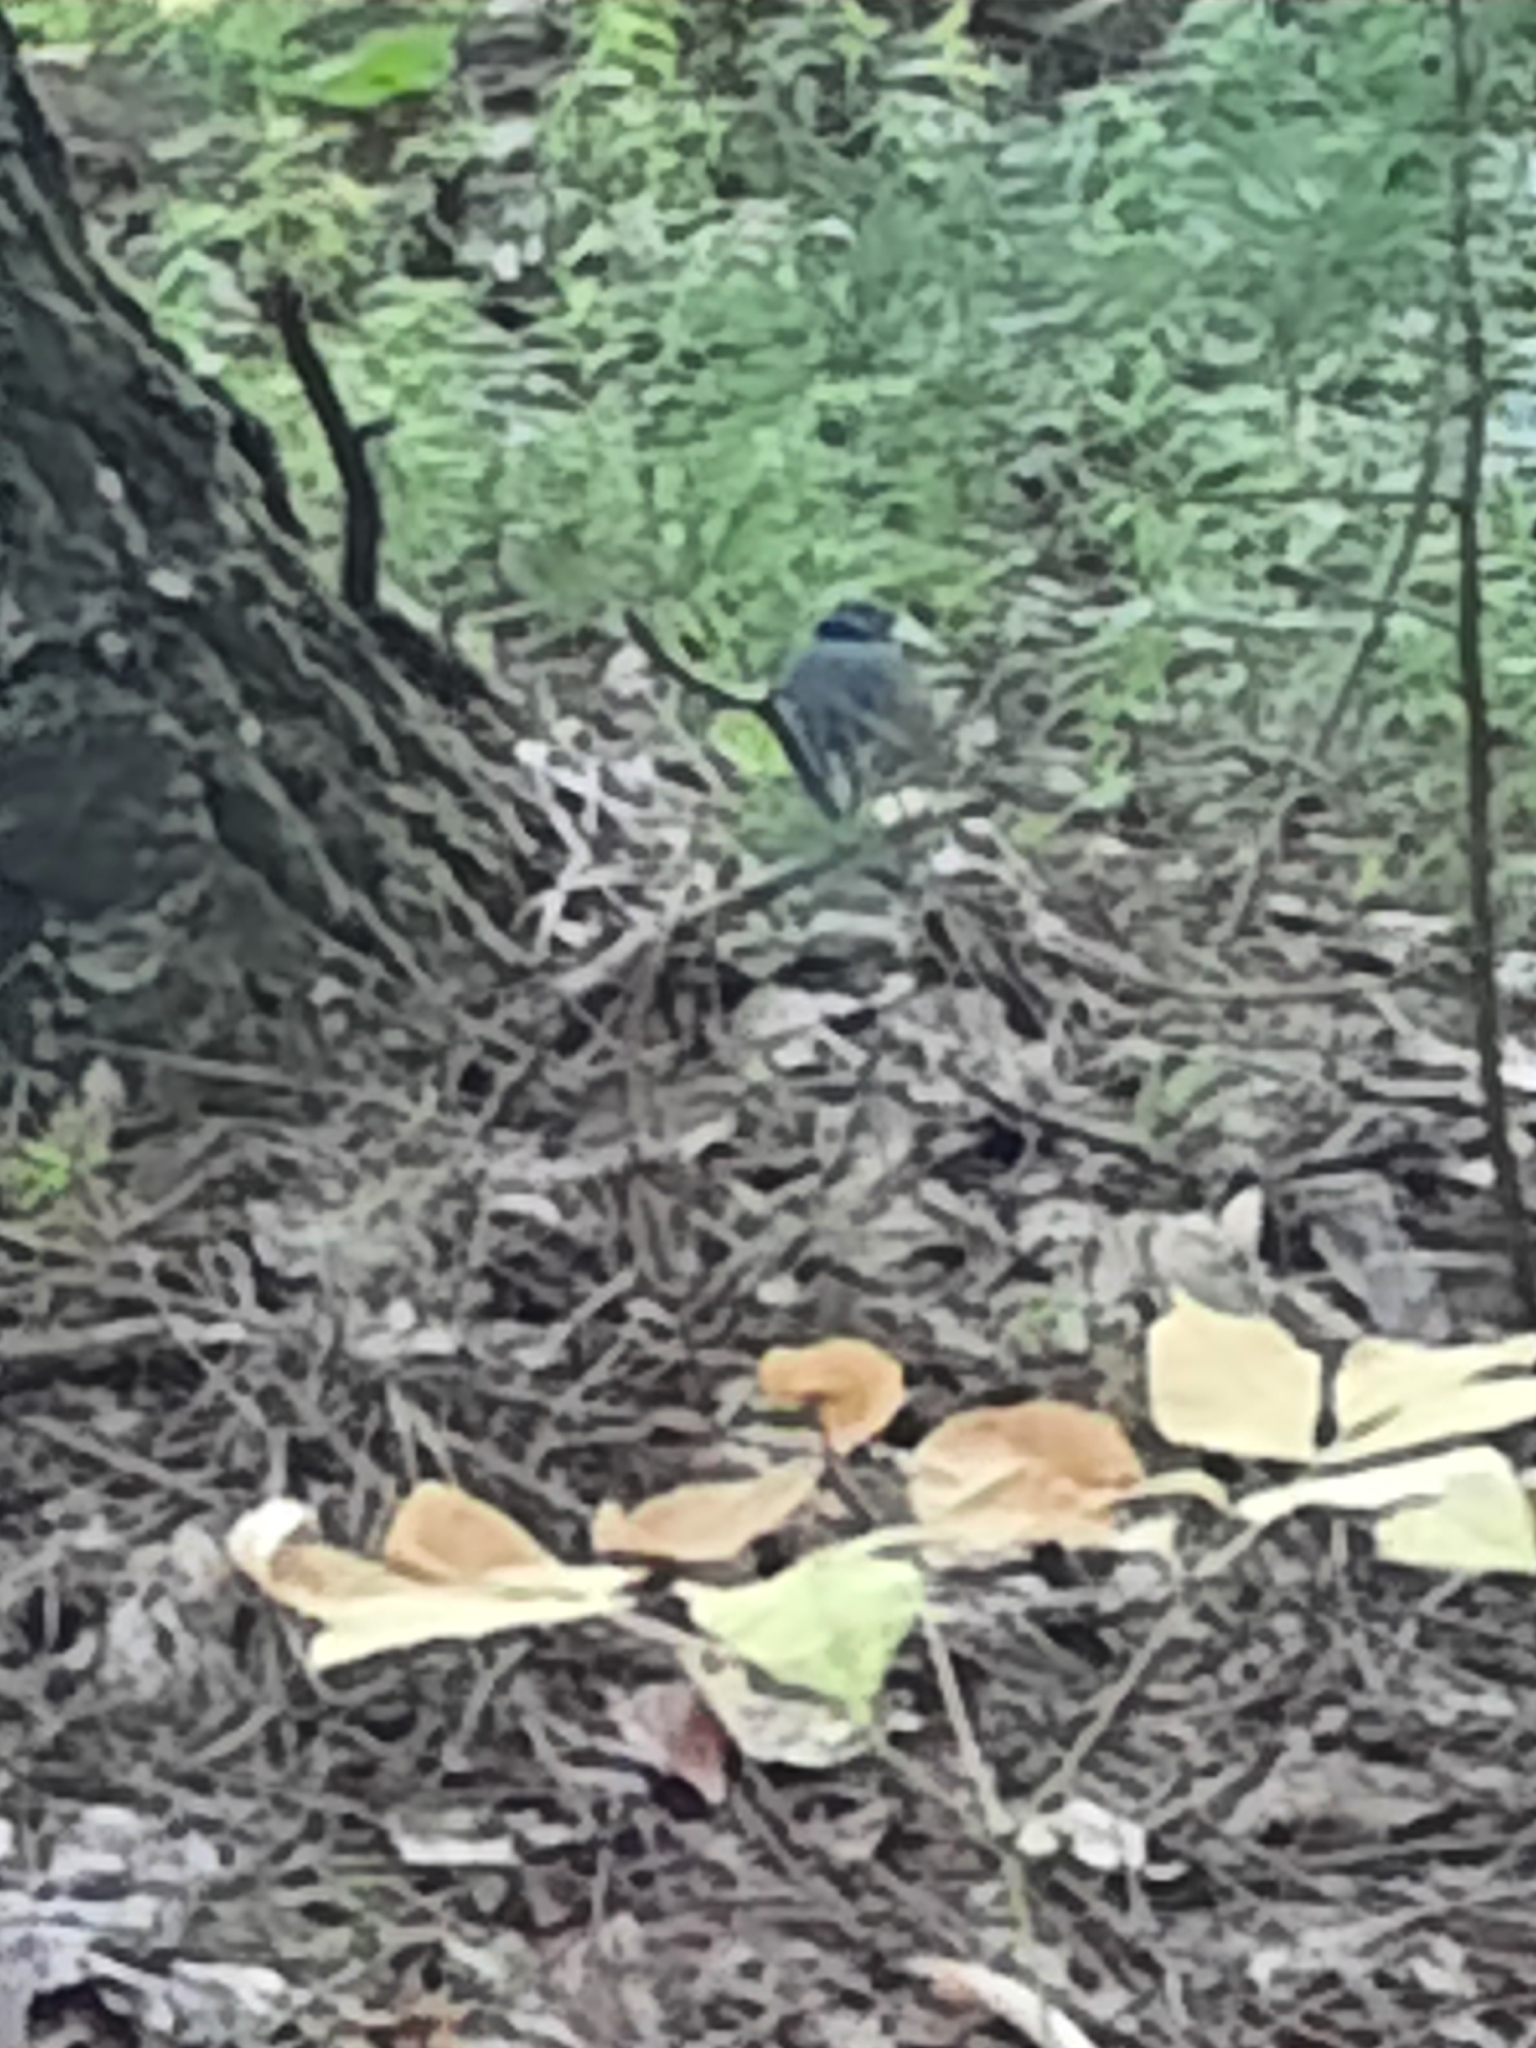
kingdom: Animalia
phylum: Chordata
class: Aves
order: Passeriformes
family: Passerellidae
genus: Junco
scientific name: Junco hyemalis
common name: Dark-eyed junco
